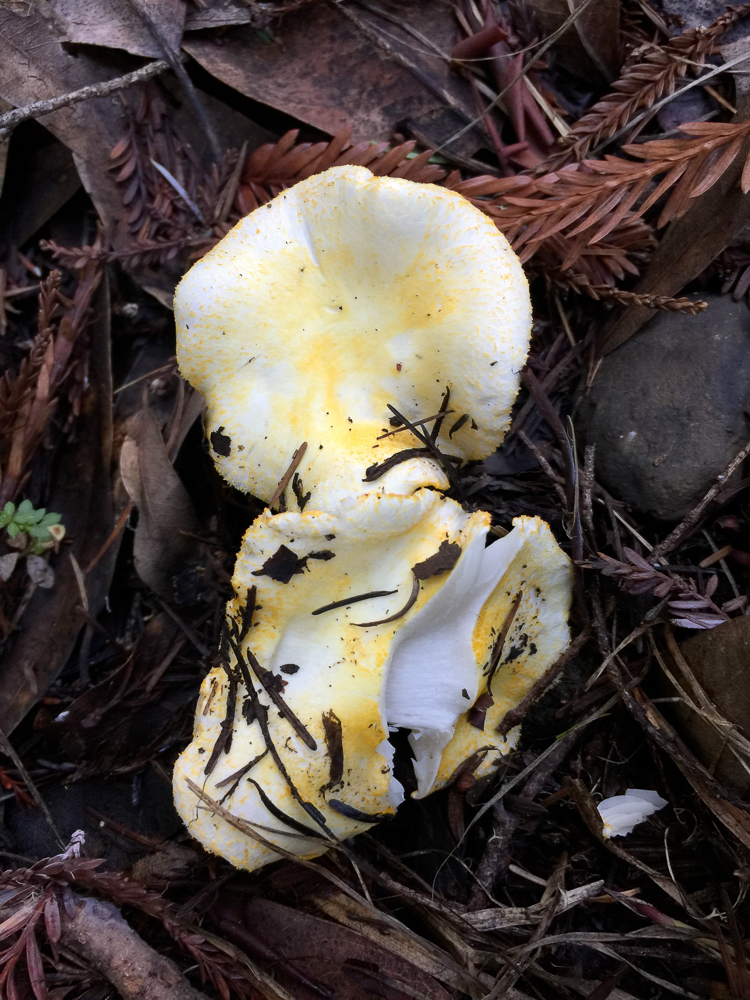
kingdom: Fungi
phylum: Basidiomycota
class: Agaricomycetes
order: Agaricales
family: Hygrophoraceae
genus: Hygrophorus
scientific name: Hygrophorus chrysodon
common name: Gold flecked woodwax
